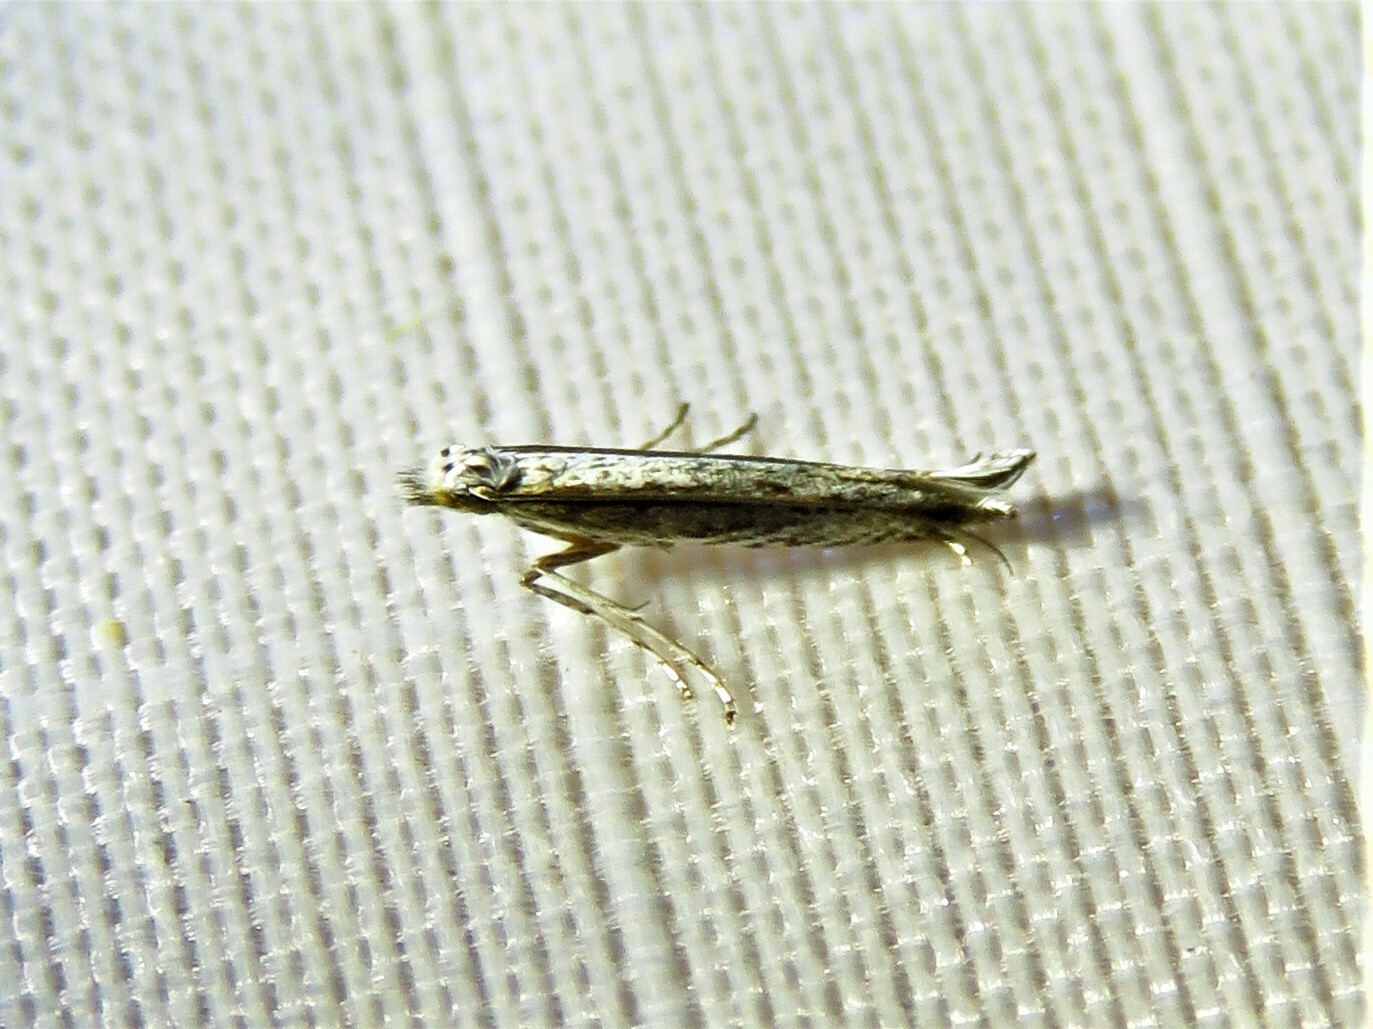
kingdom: Plantae
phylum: Rhodophyta
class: Florideophyceae
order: Gracilariales
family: Gracilariaceae
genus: Gracilaria
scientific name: Gracilaria
